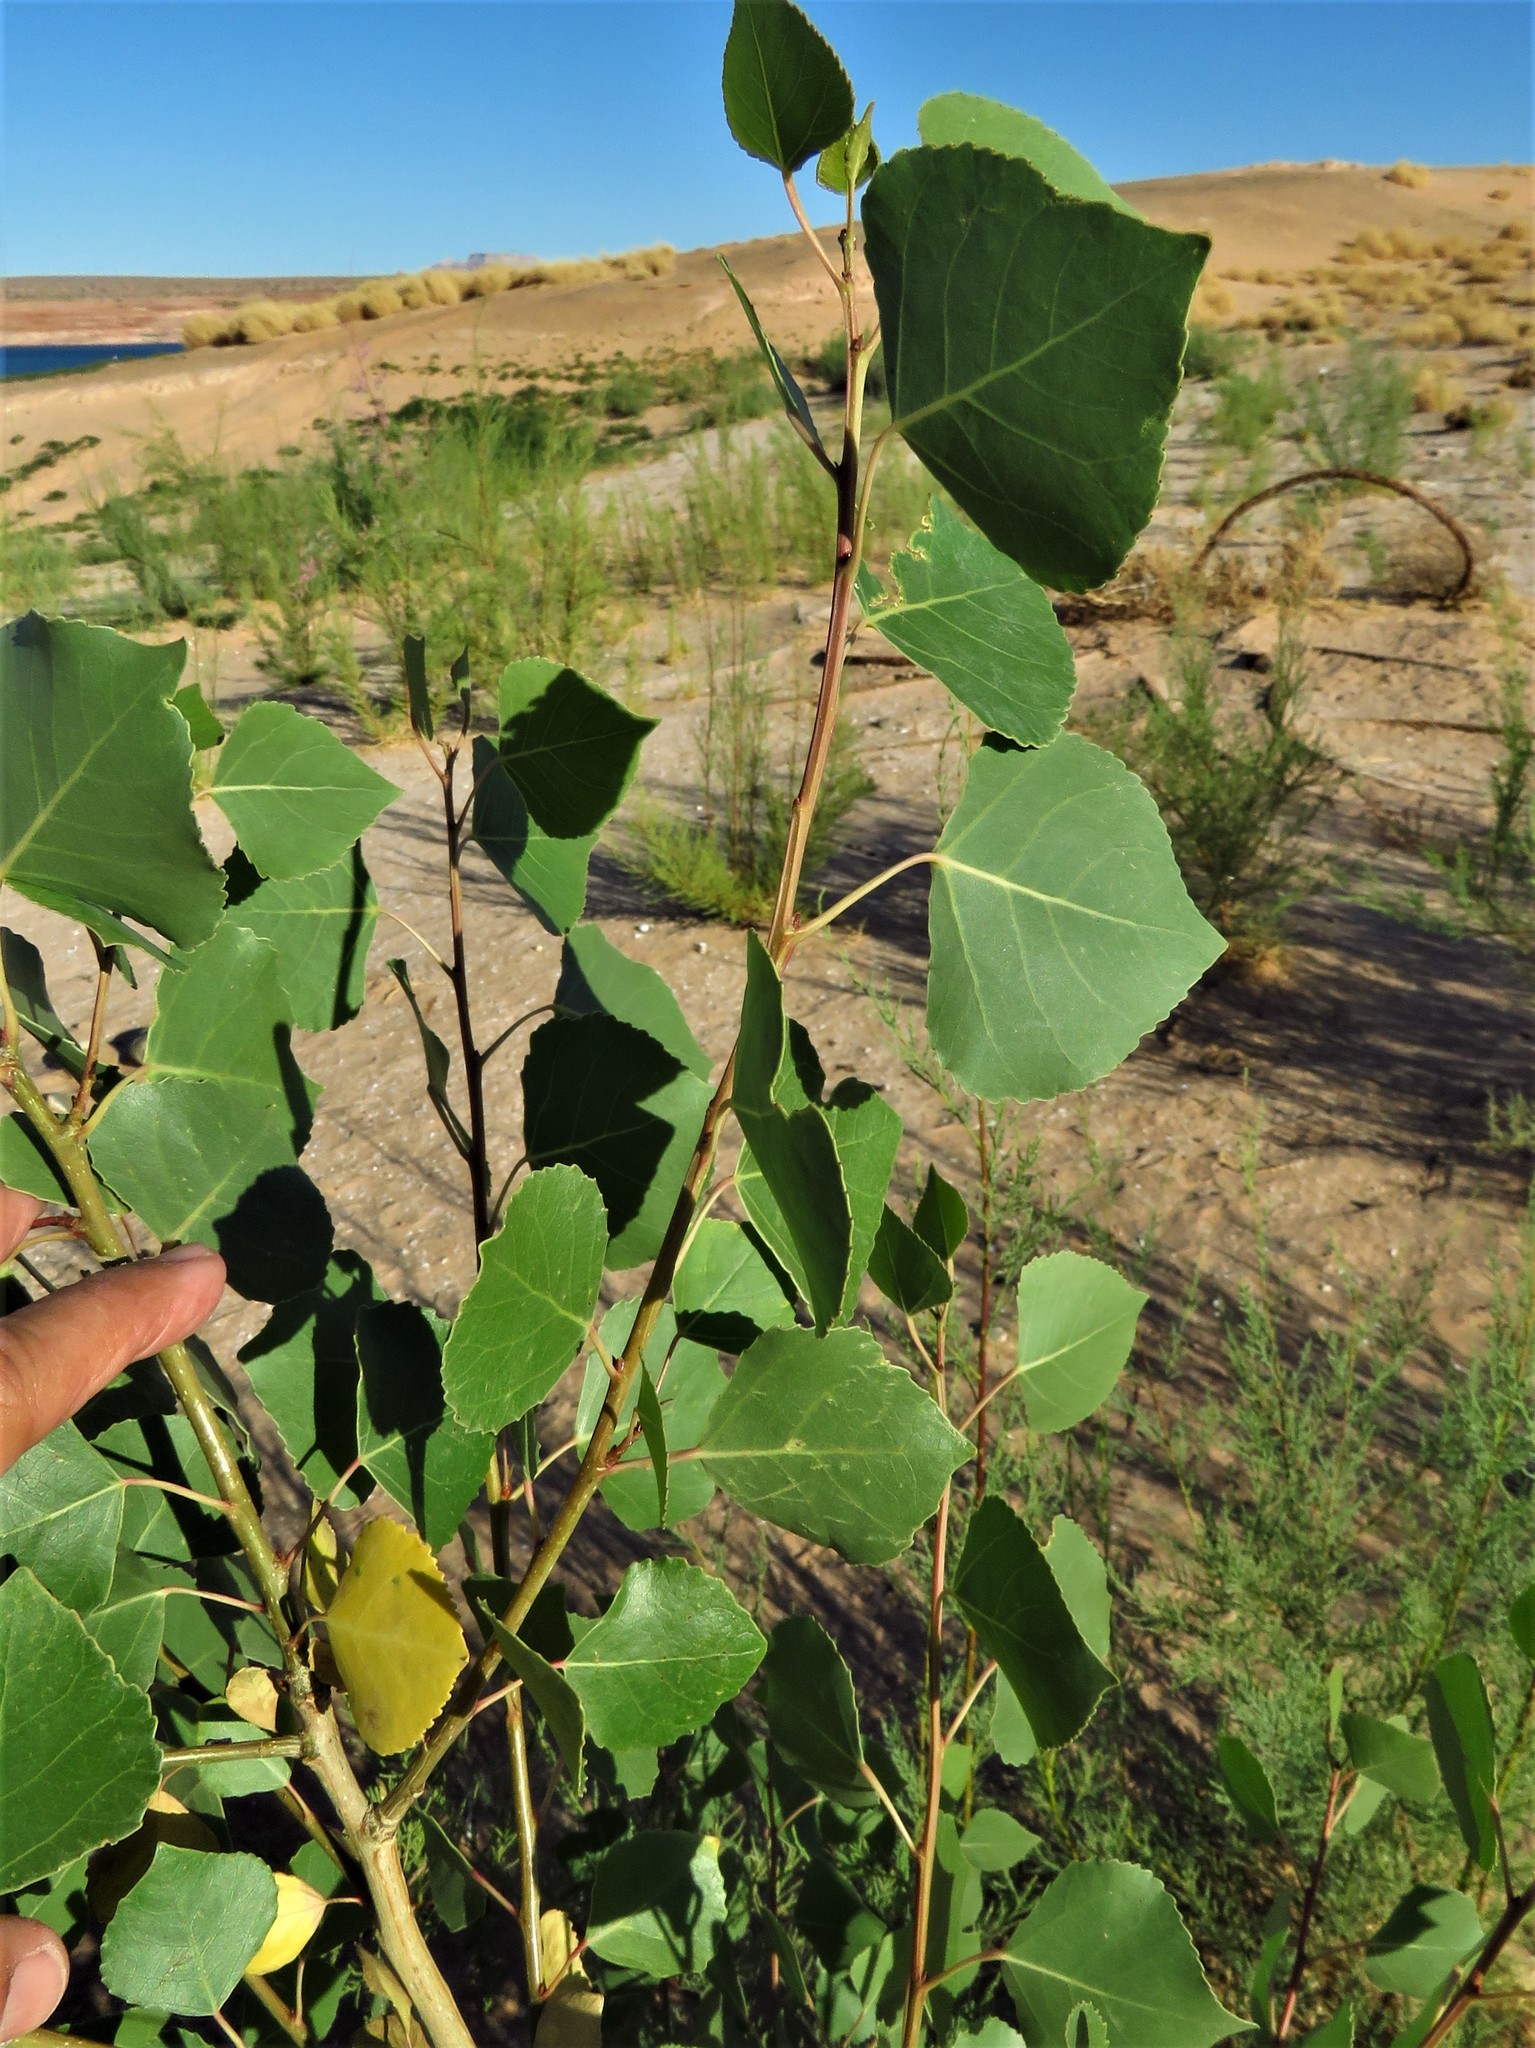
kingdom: Plantae
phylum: Tracheophyta
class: Magnoliopsida
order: Malpighiales
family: Salicaceae
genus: Populus
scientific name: Populus tremuloides
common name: Quaking aspen
